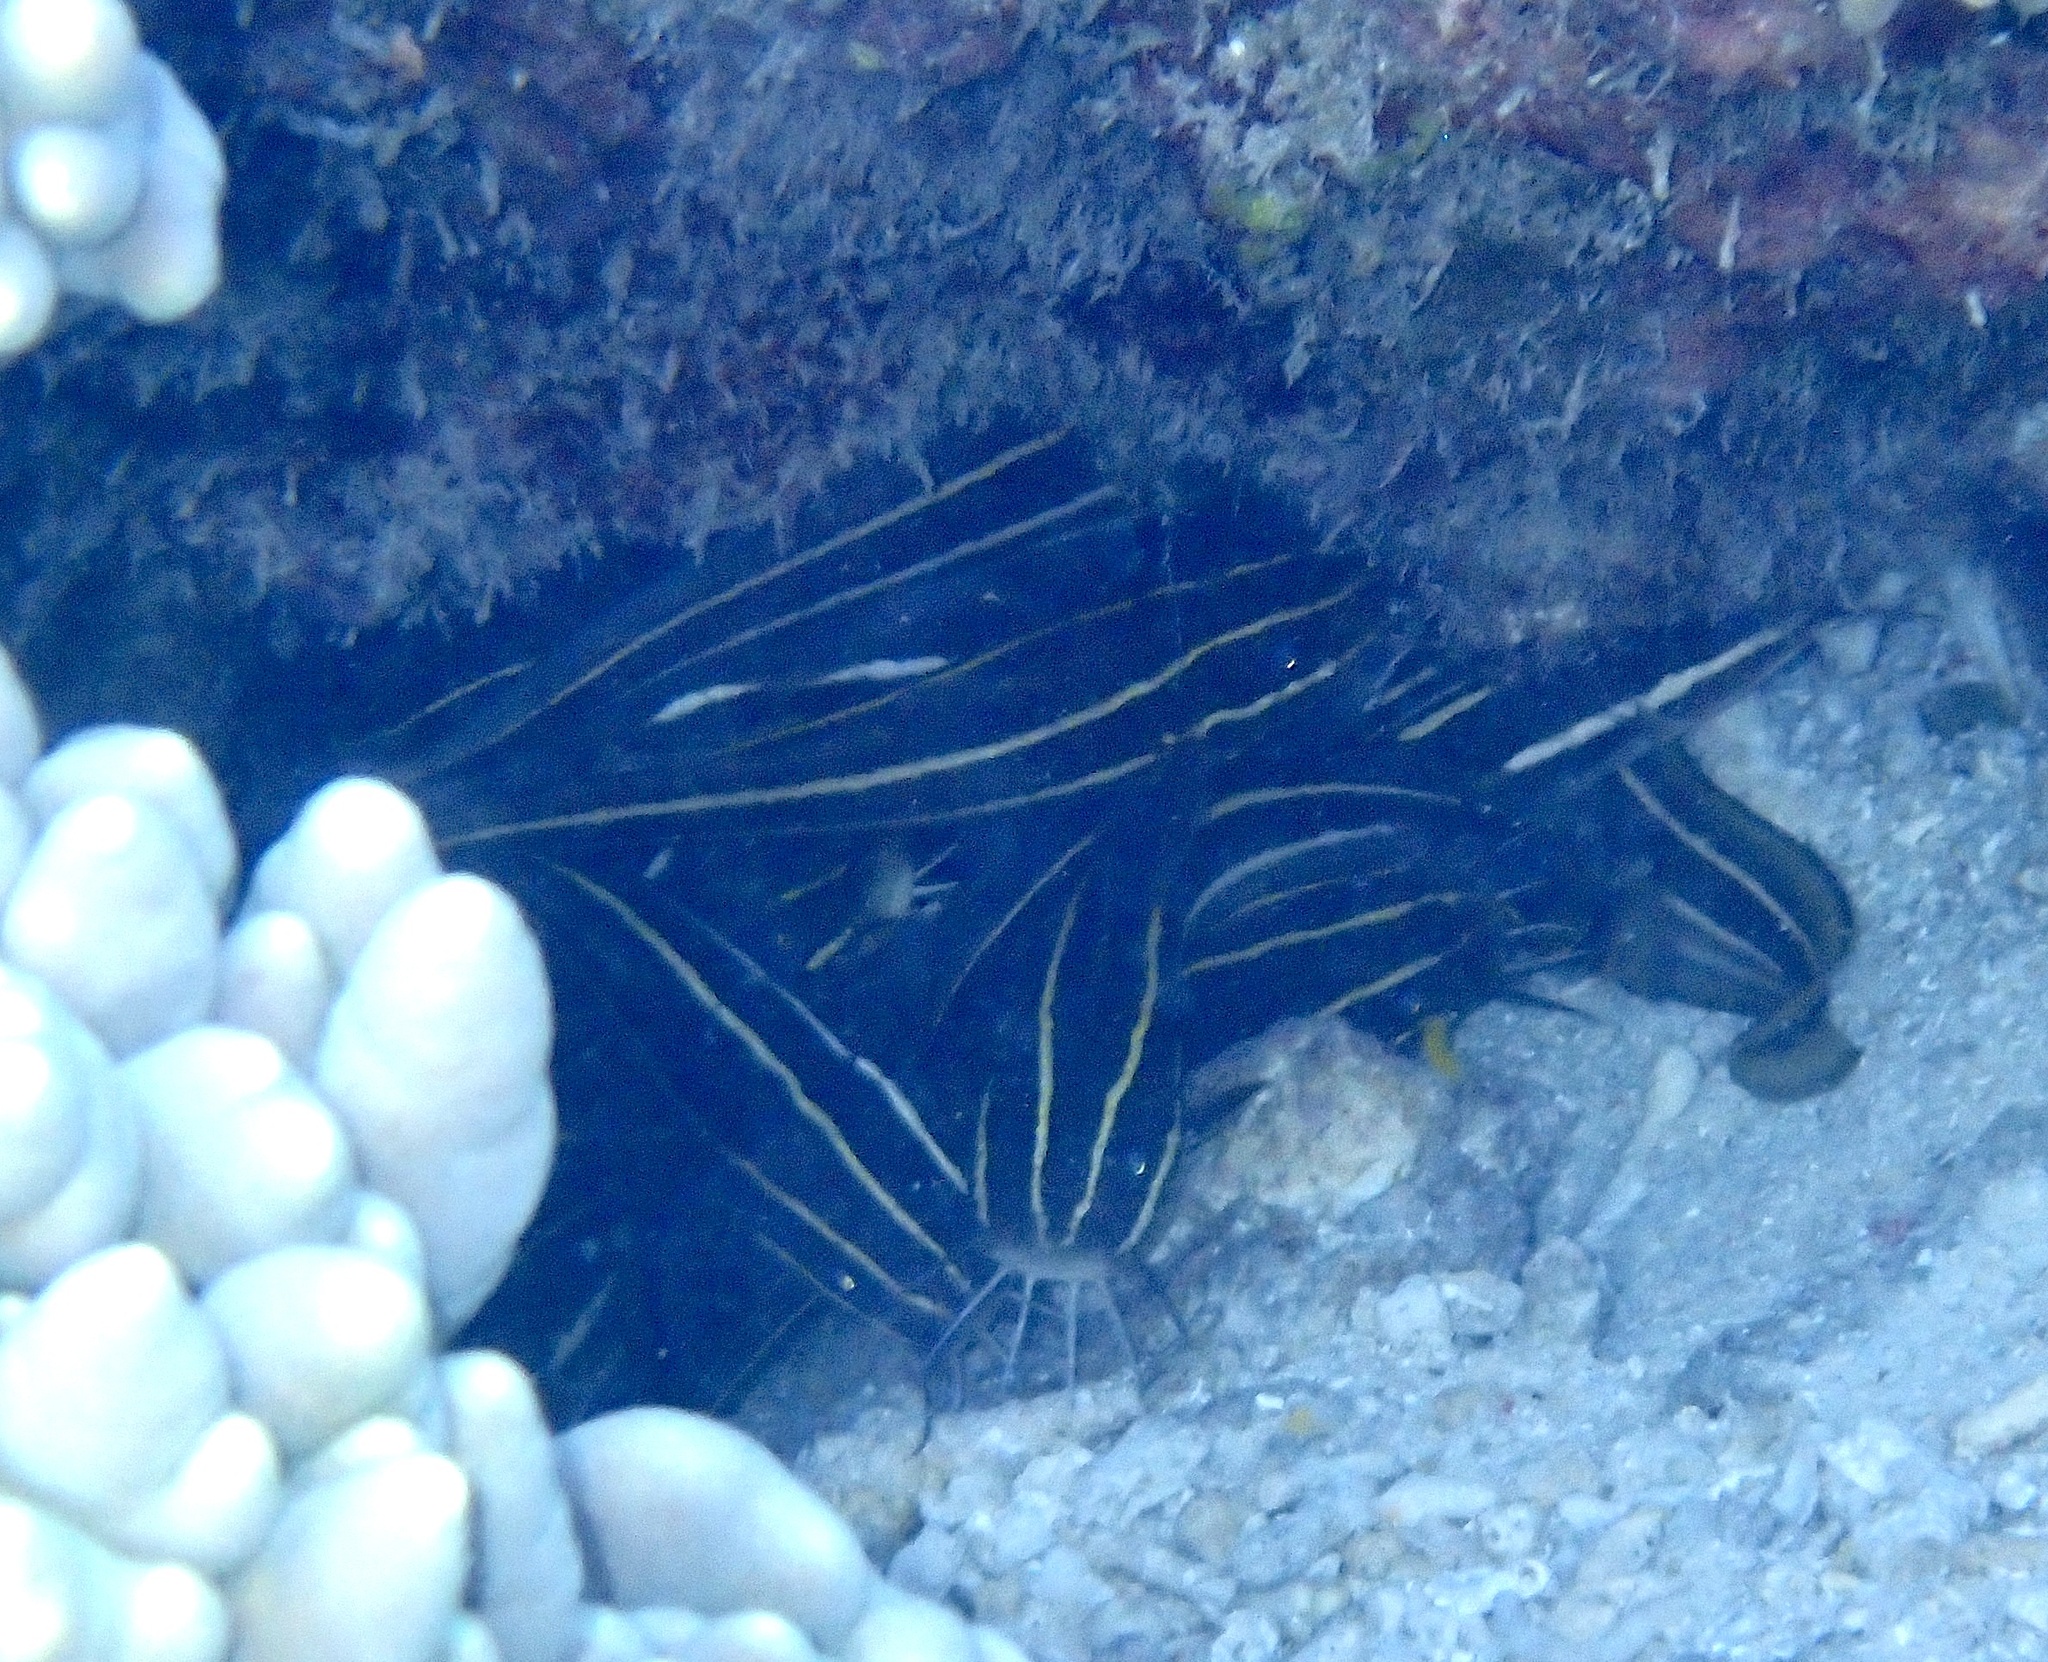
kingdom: Animalia
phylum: Chordata
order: Siluriformes
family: Plotosidae
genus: Plotosus
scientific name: Plotosus lineatus
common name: Striped eel catfish
